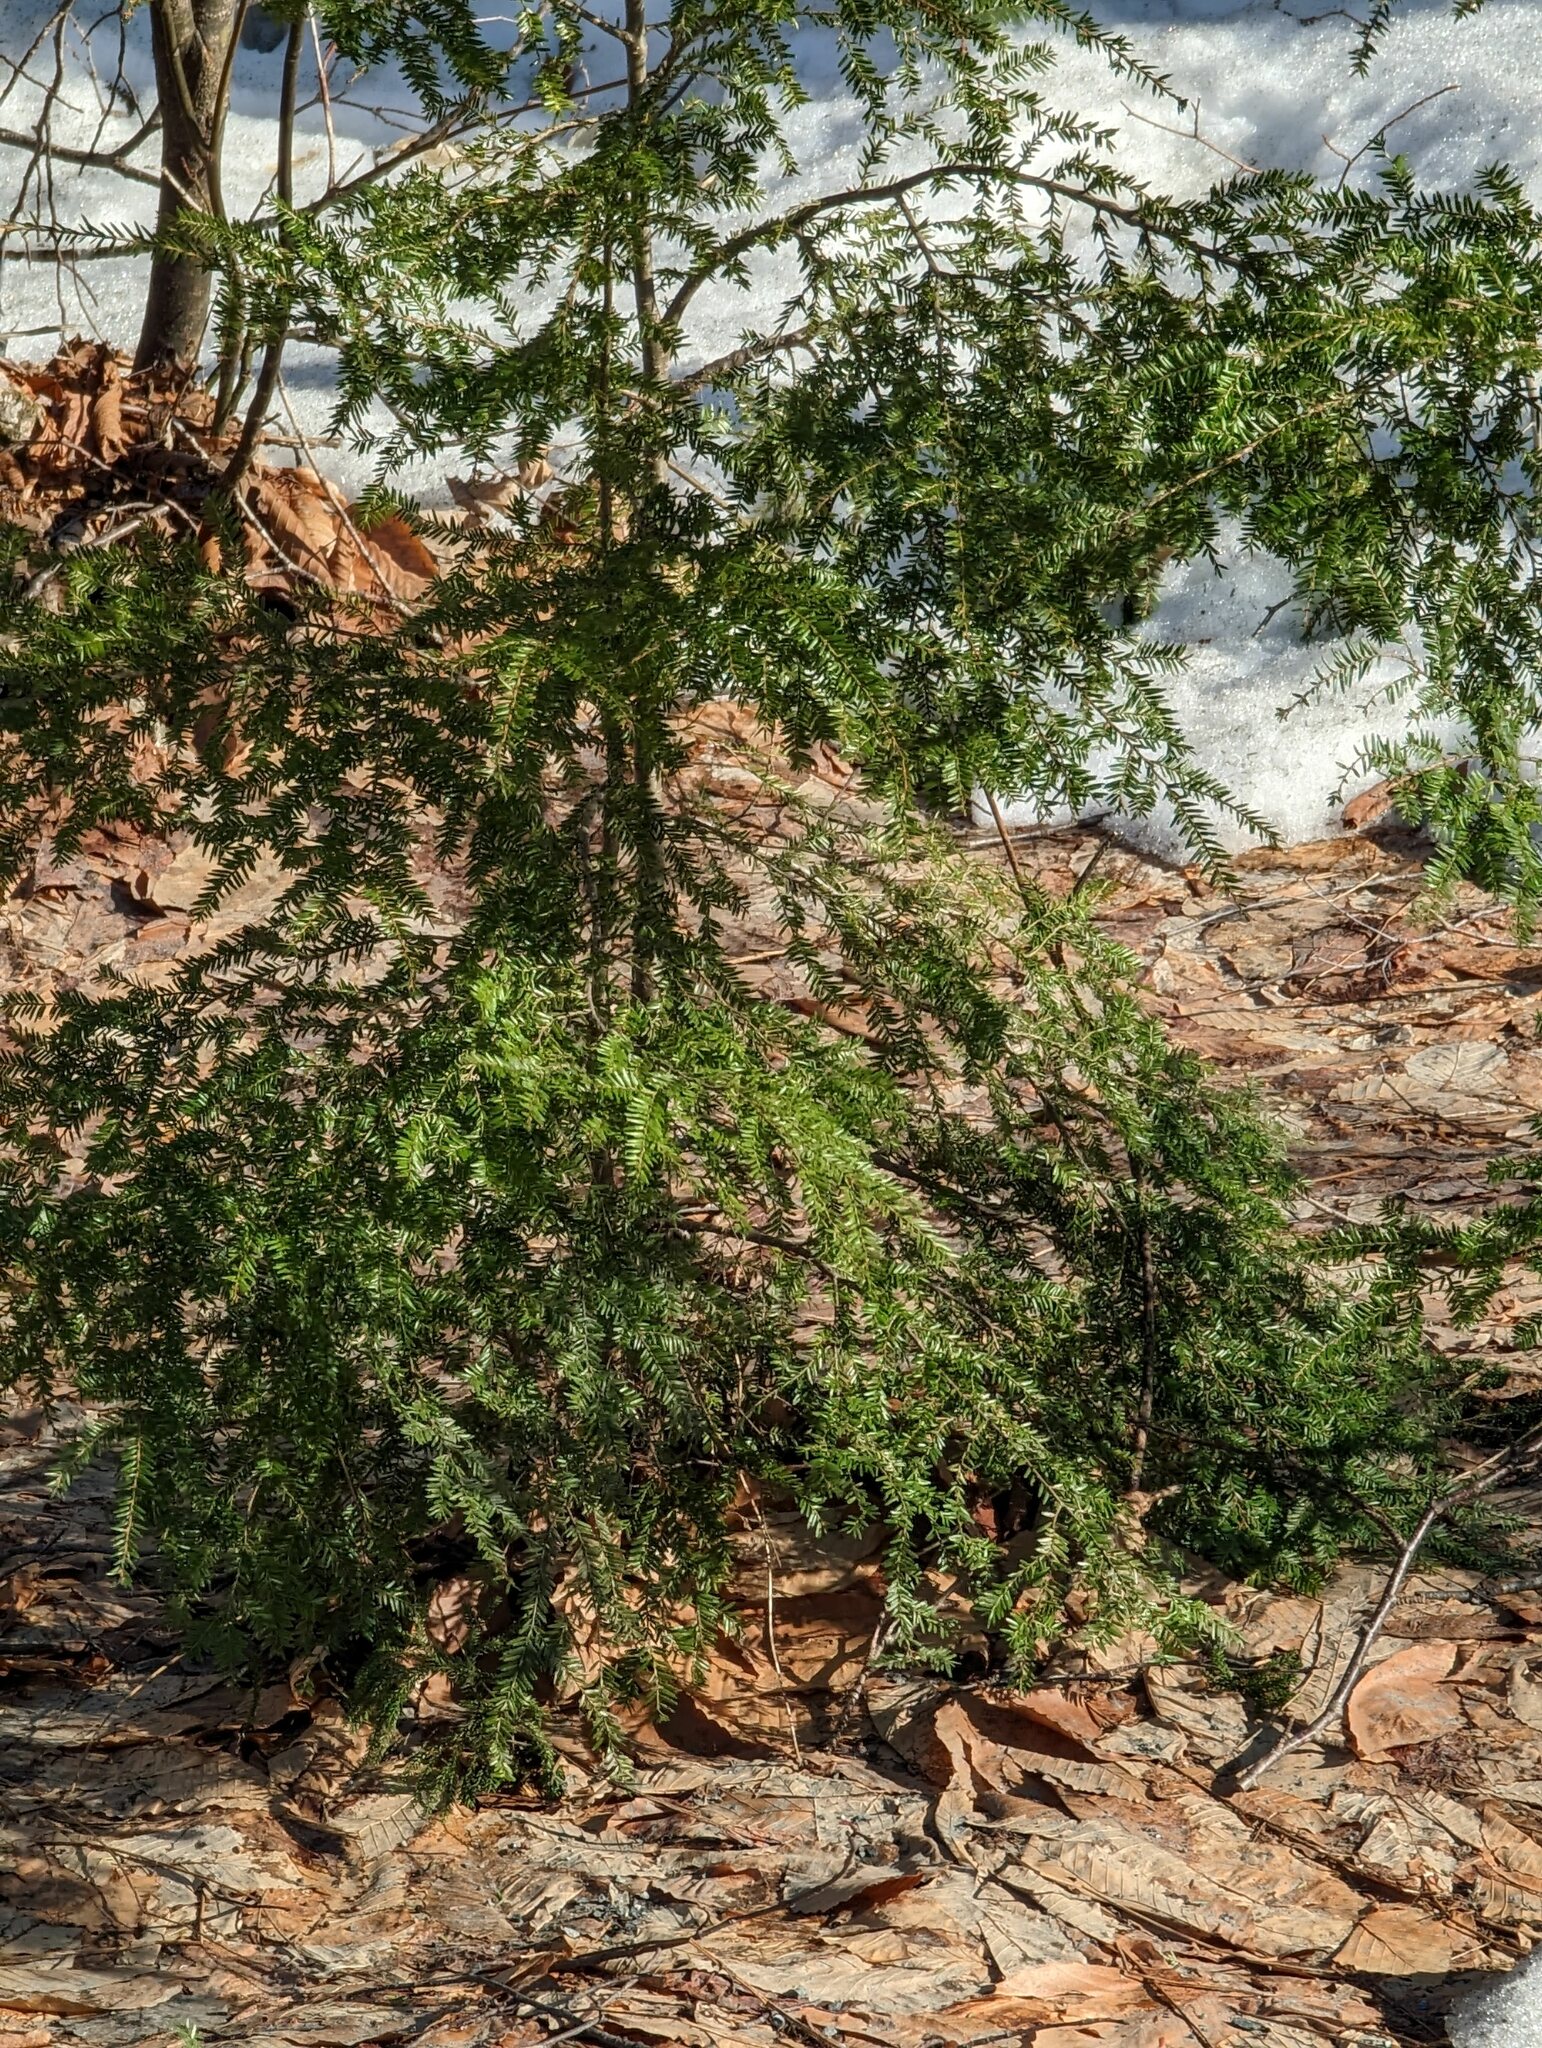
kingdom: Plantae
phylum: Tracheophyta
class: Pinopsida
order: Pinales
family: Pinaceae
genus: Tsuga
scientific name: Tsuga canadensis
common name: Eastern hemlock
